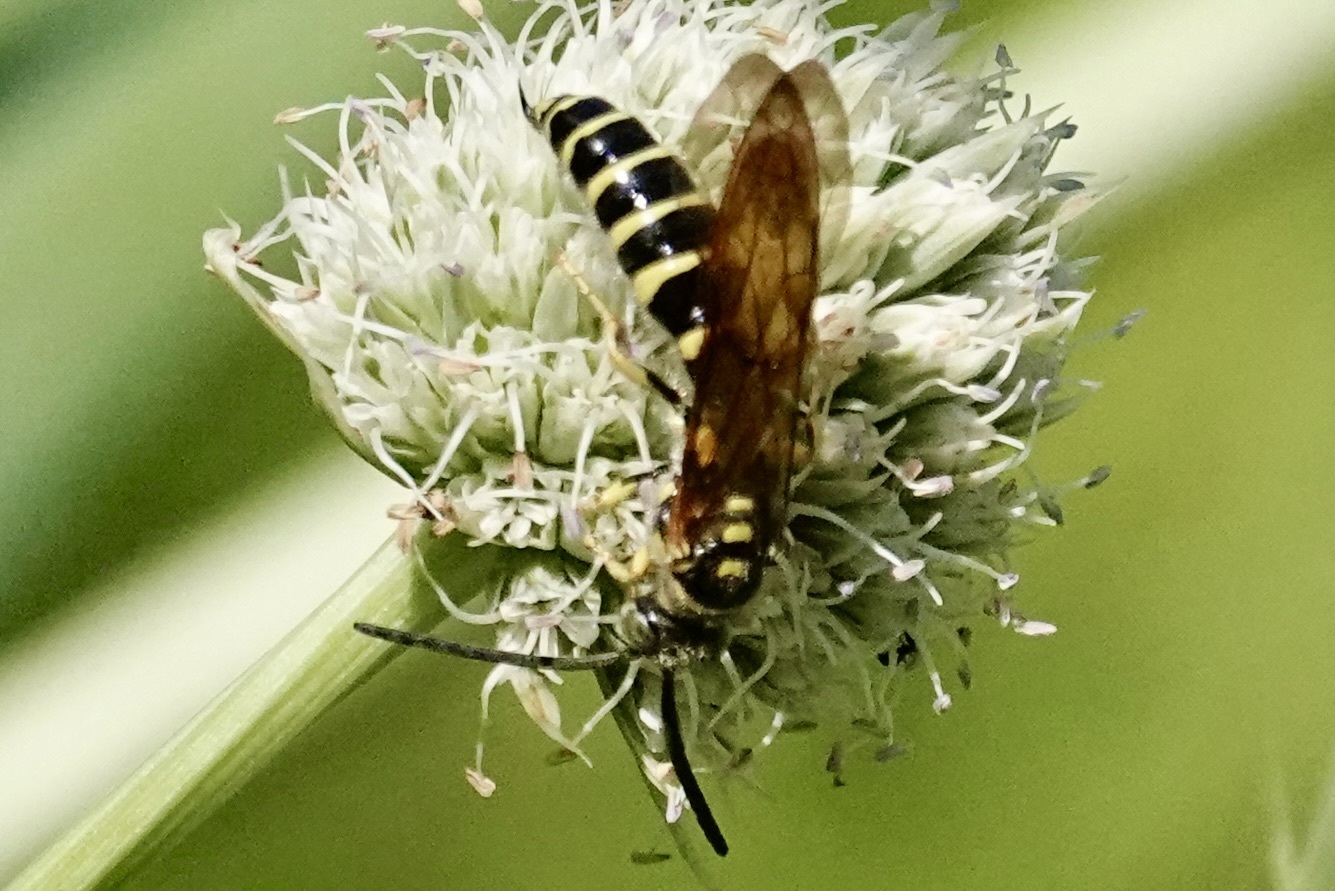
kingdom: Animalia
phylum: Arthropoda
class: Insecta
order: Hymenoptera
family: Tiphiidae
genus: Myzinum
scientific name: Myzinum quinquecinctum
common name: Five-banded thynnid wasp
